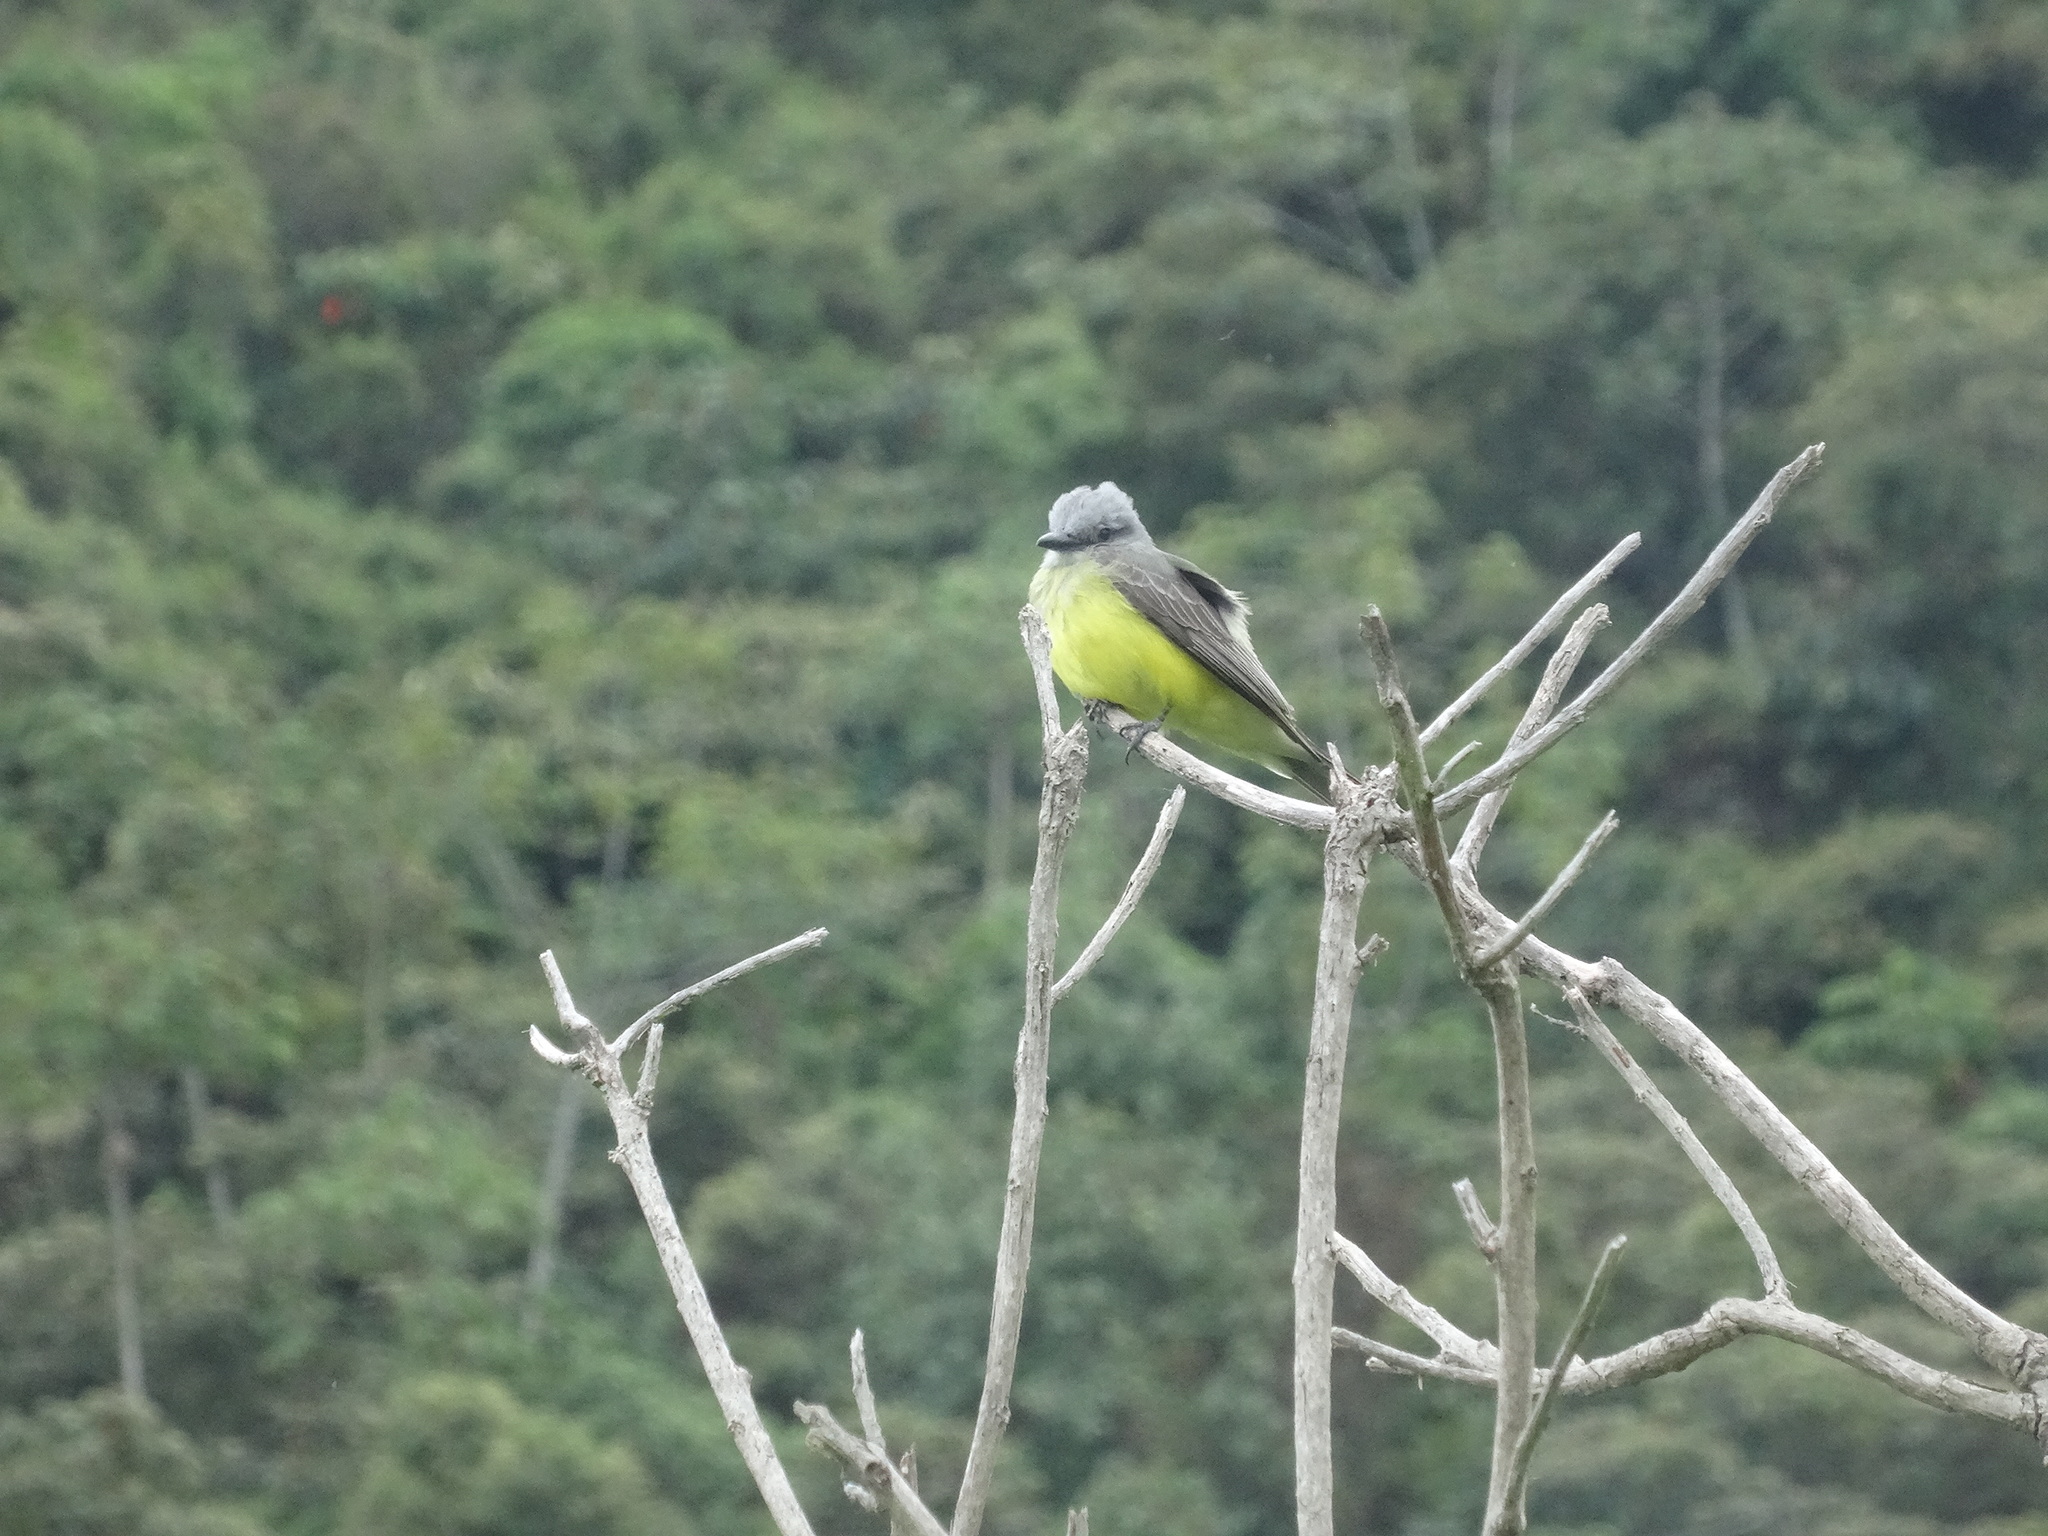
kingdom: Animalia
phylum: Chordata
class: Aves
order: Passeriformes
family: Tyrannidae
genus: Tyrannus
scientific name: Tyrannus melancholicus
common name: Tropical kingbird
